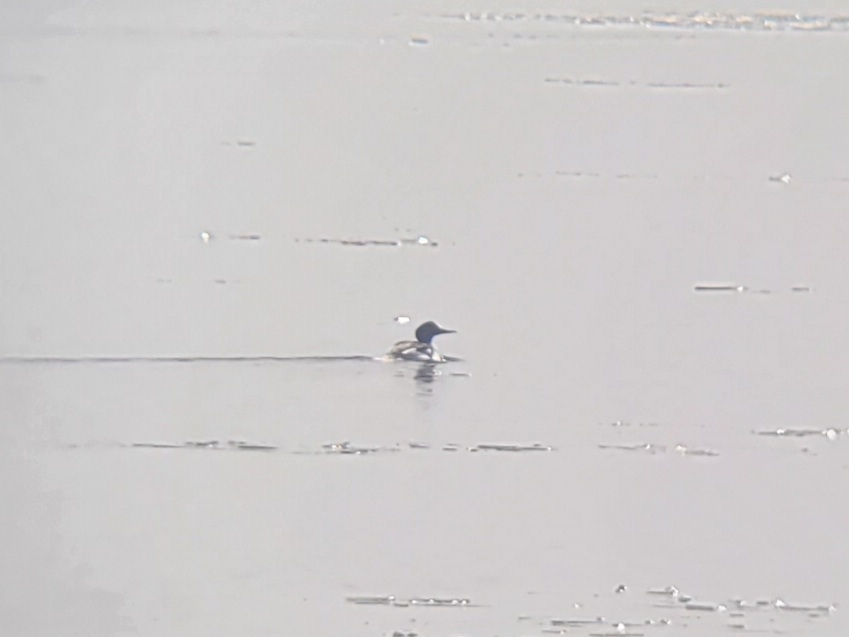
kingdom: Animalia
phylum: Chordata
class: Aves
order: Anseriformes
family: Anatidae
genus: Mergus
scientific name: Mergus merganser
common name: Common merganser
